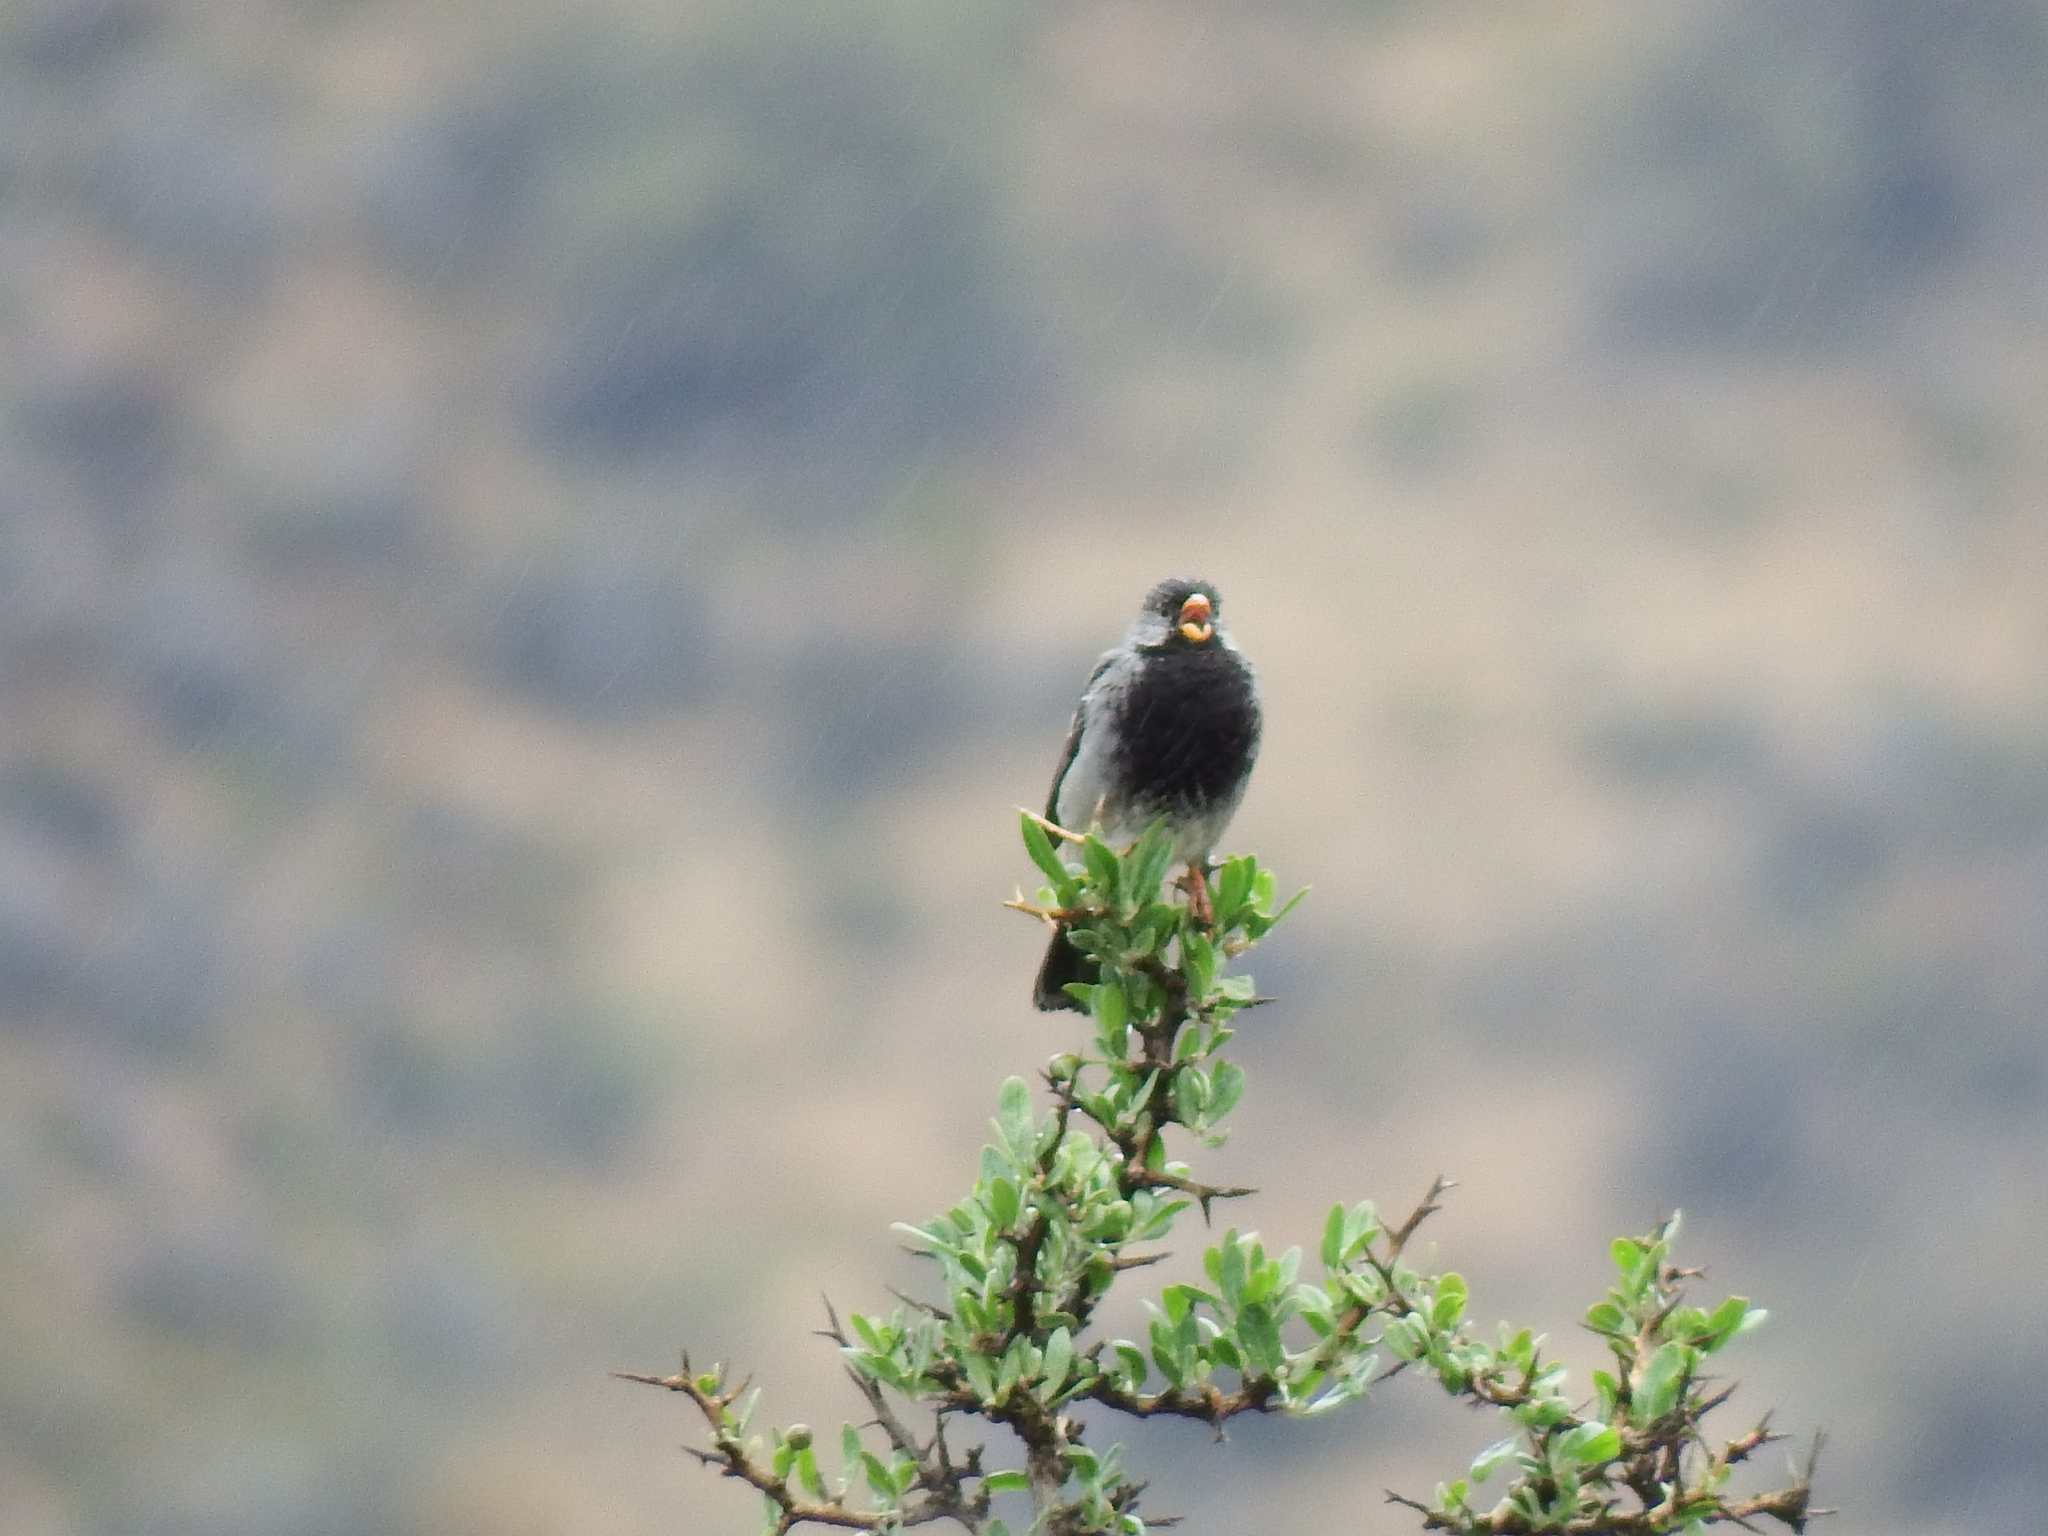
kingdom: Animalia
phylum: Chordata
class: Aves
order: Passeriformes
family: Thraupidae
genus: Rhopospina
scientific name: Rhopospina fruticeti
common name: Mourning sierra finch
